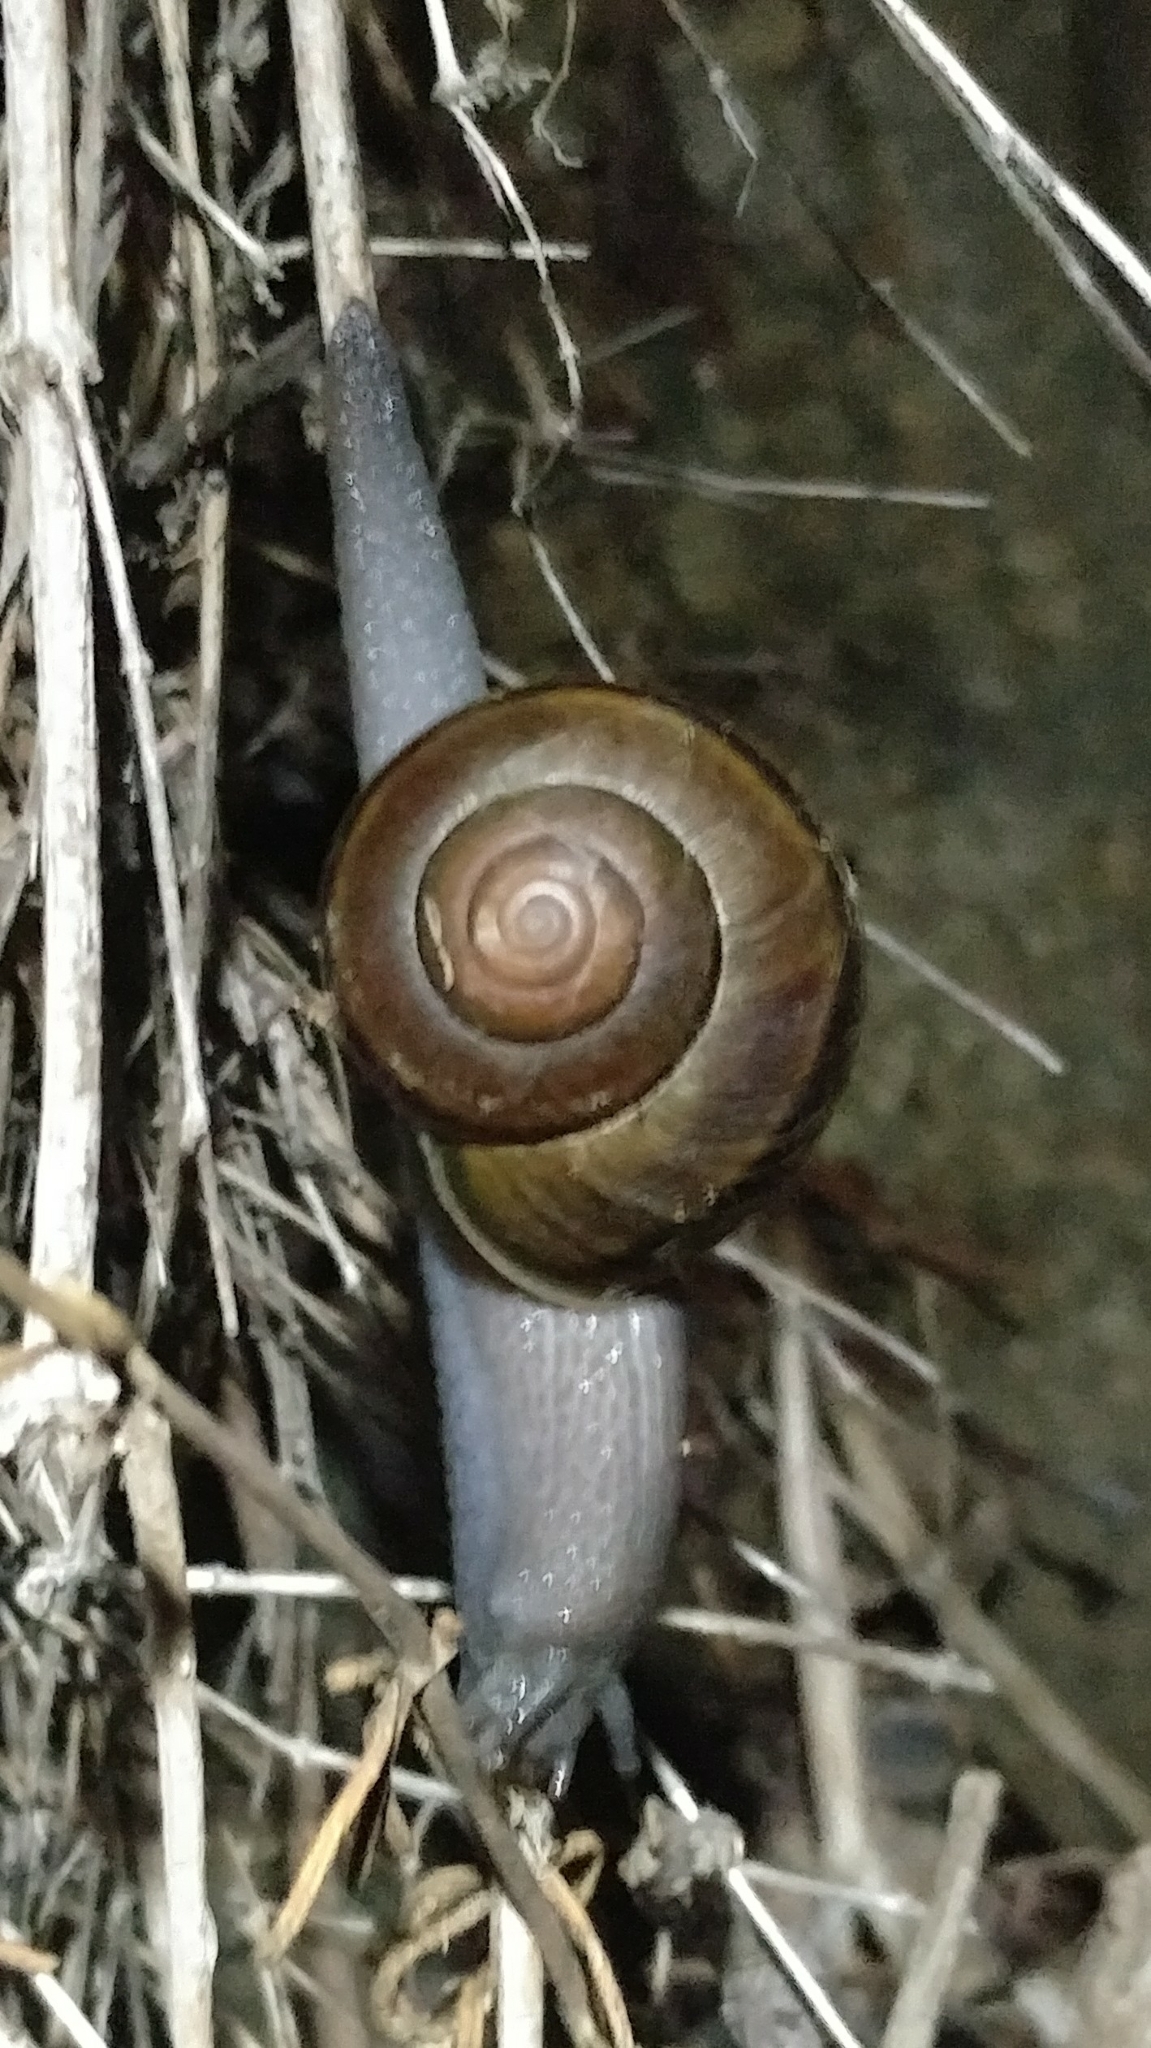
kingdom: Animalia
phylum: Mollusca
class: Gastropoda
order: Stylommatophora
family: Xanthonychidae
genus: Helminthoglypta
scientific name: Helminthoglypta tudiculata
